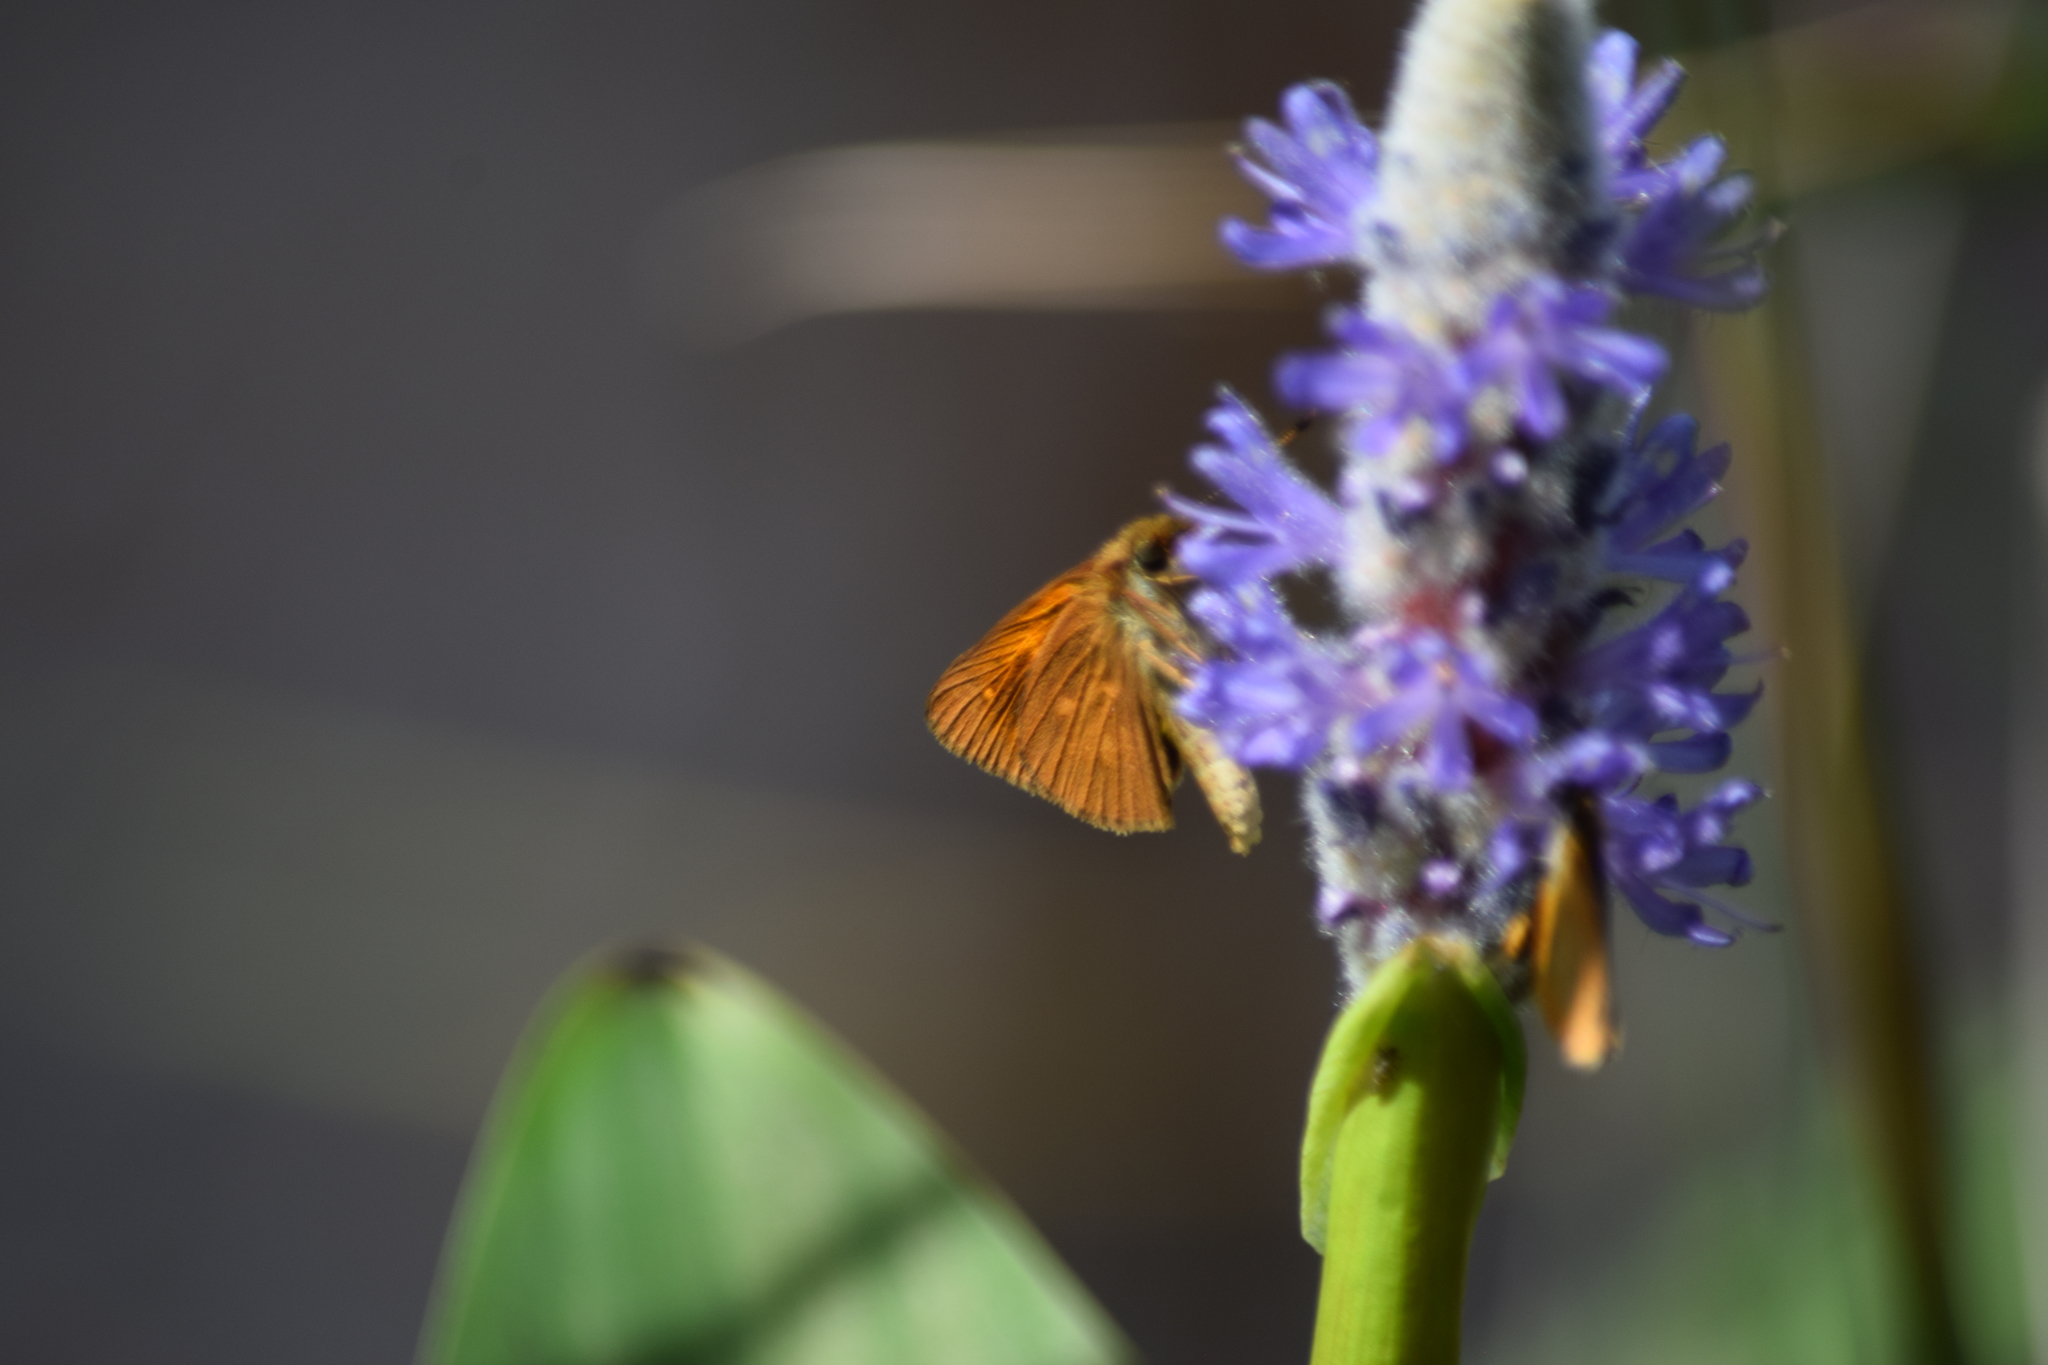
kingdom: Animalia
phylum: Arthropoda
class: Insecta
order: Lepidoptera
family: Hesperiidae
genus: Poanes
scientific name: Poanes viator
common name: Broad-winged skipper
